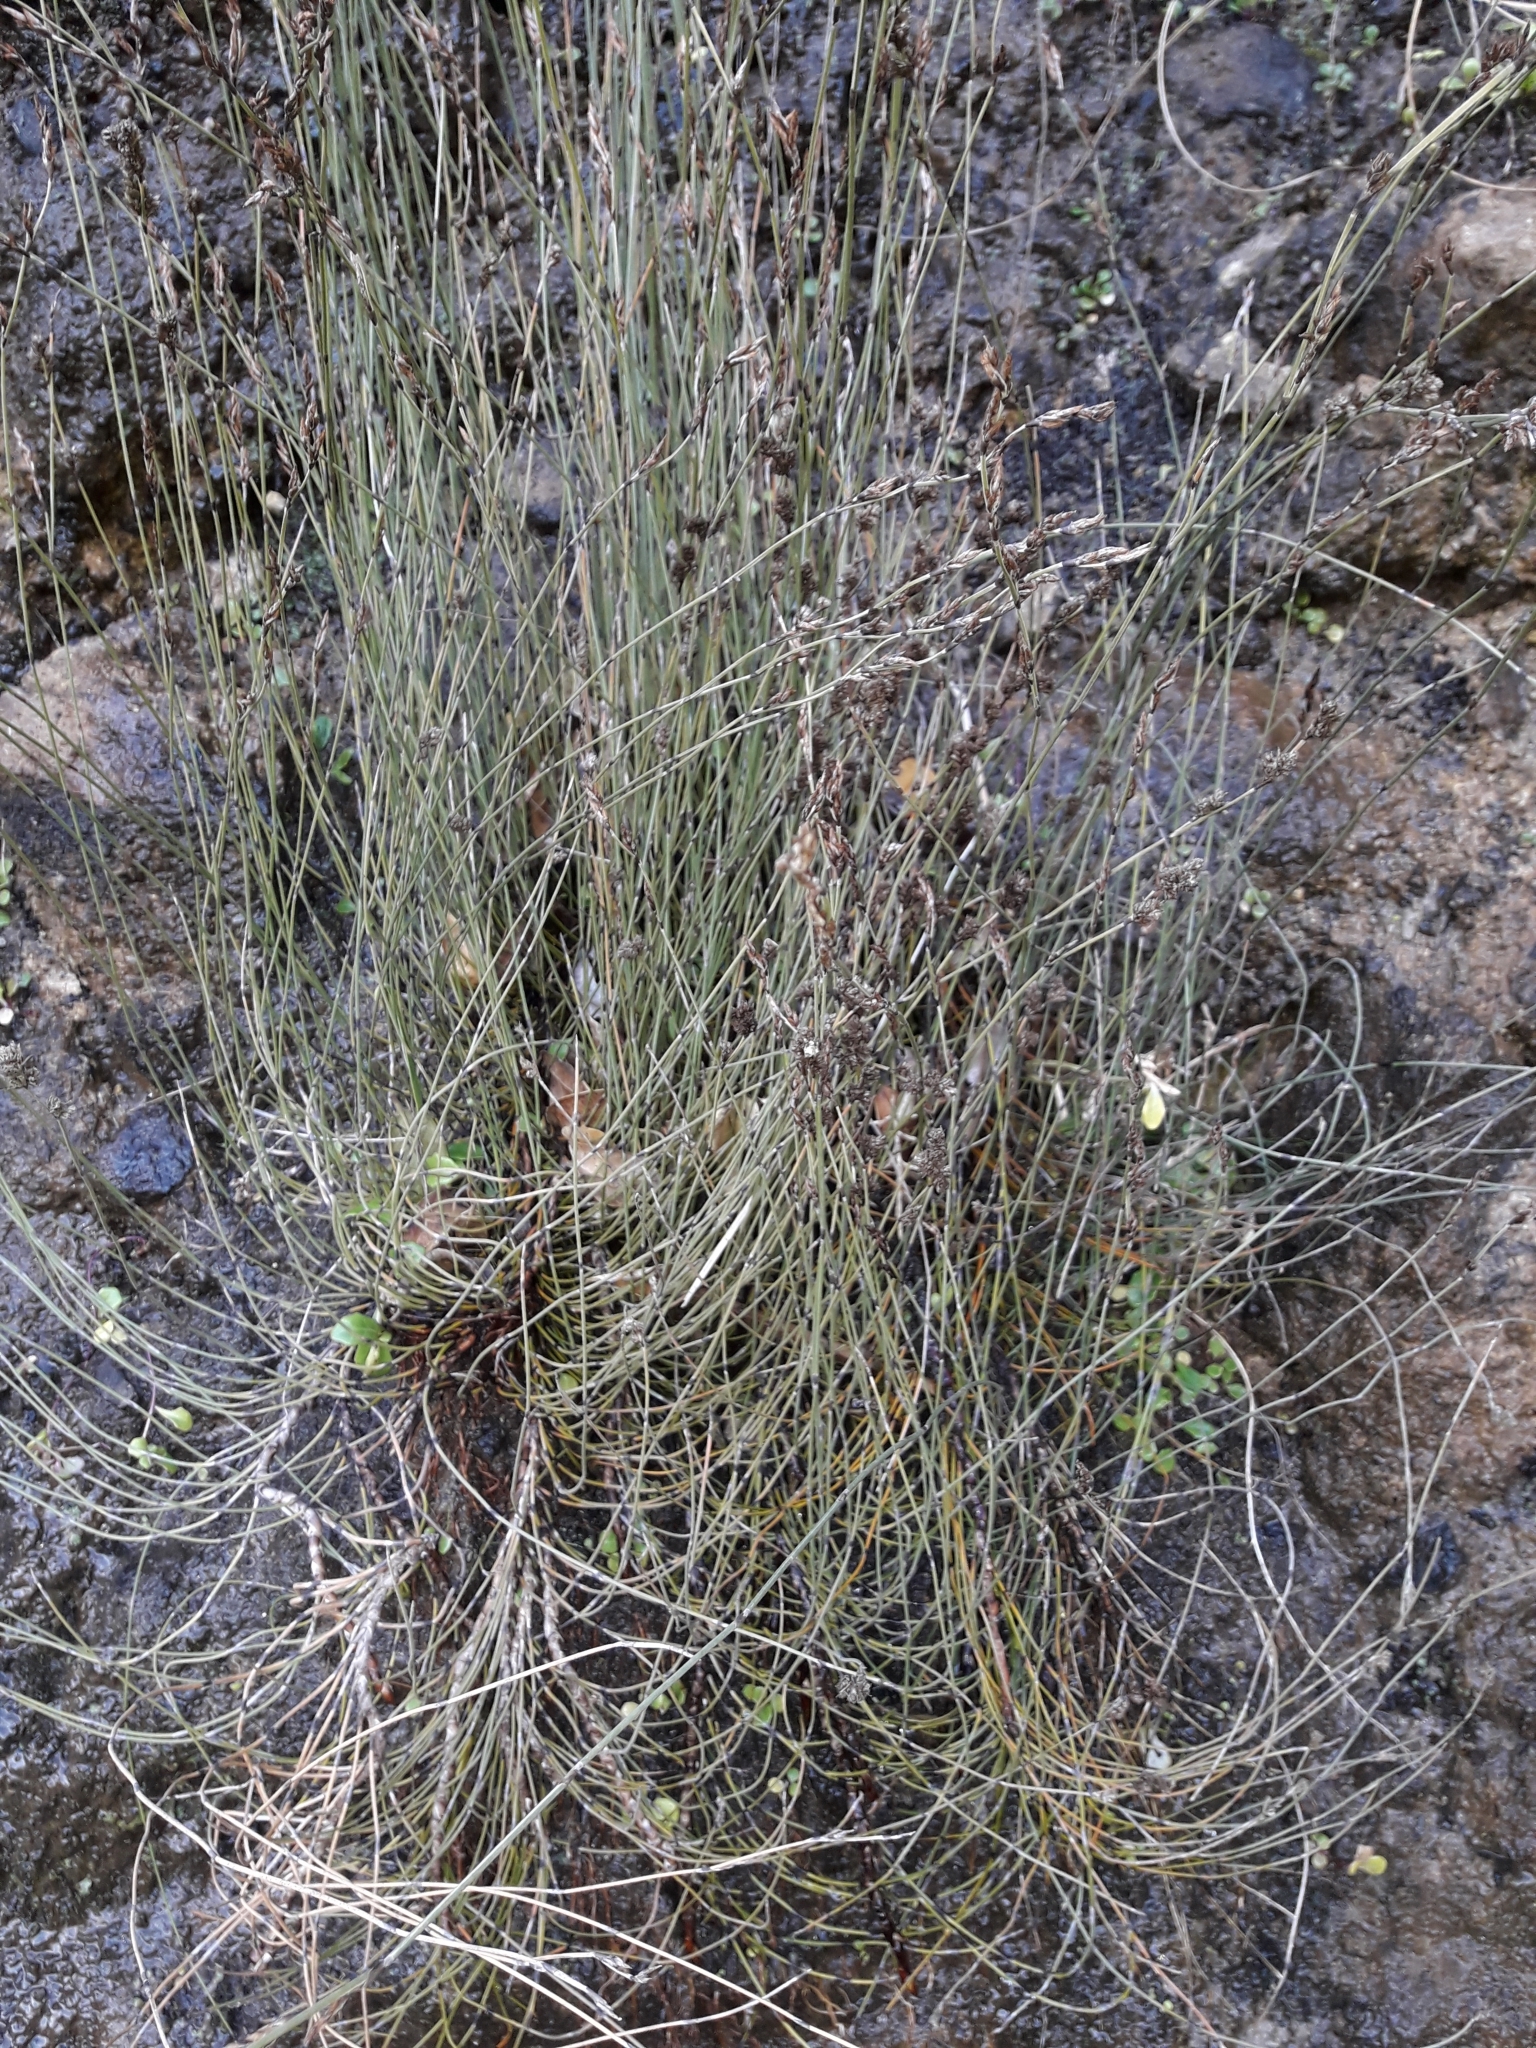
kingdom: Plantae
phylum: Tracheophyta
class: Liliopsida
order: Poales
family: Restionaceae
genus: Apodasmia
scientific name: Apodasmia similis
